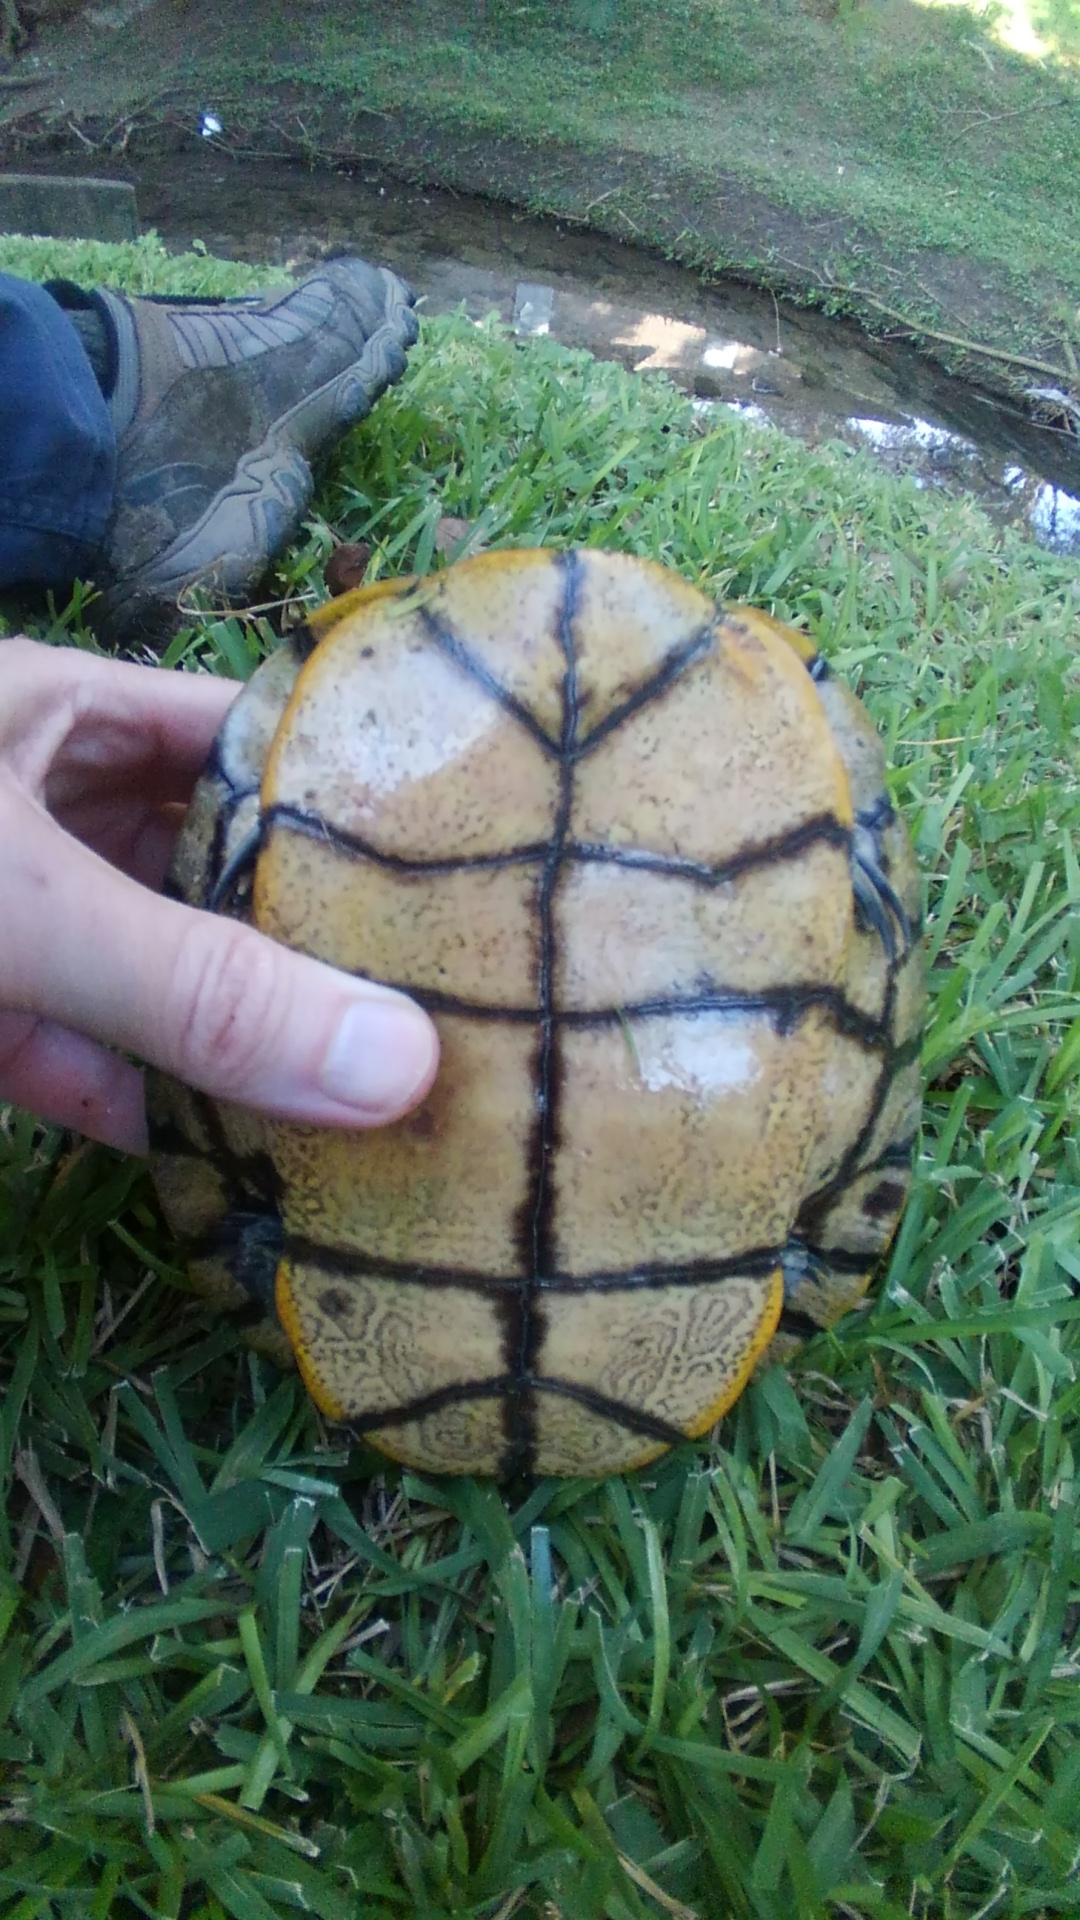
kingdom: Animalia
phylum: Chordata
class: Testudines
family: Emydidae
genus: Trachemys
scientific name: Trachemys scripta
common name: Slider
